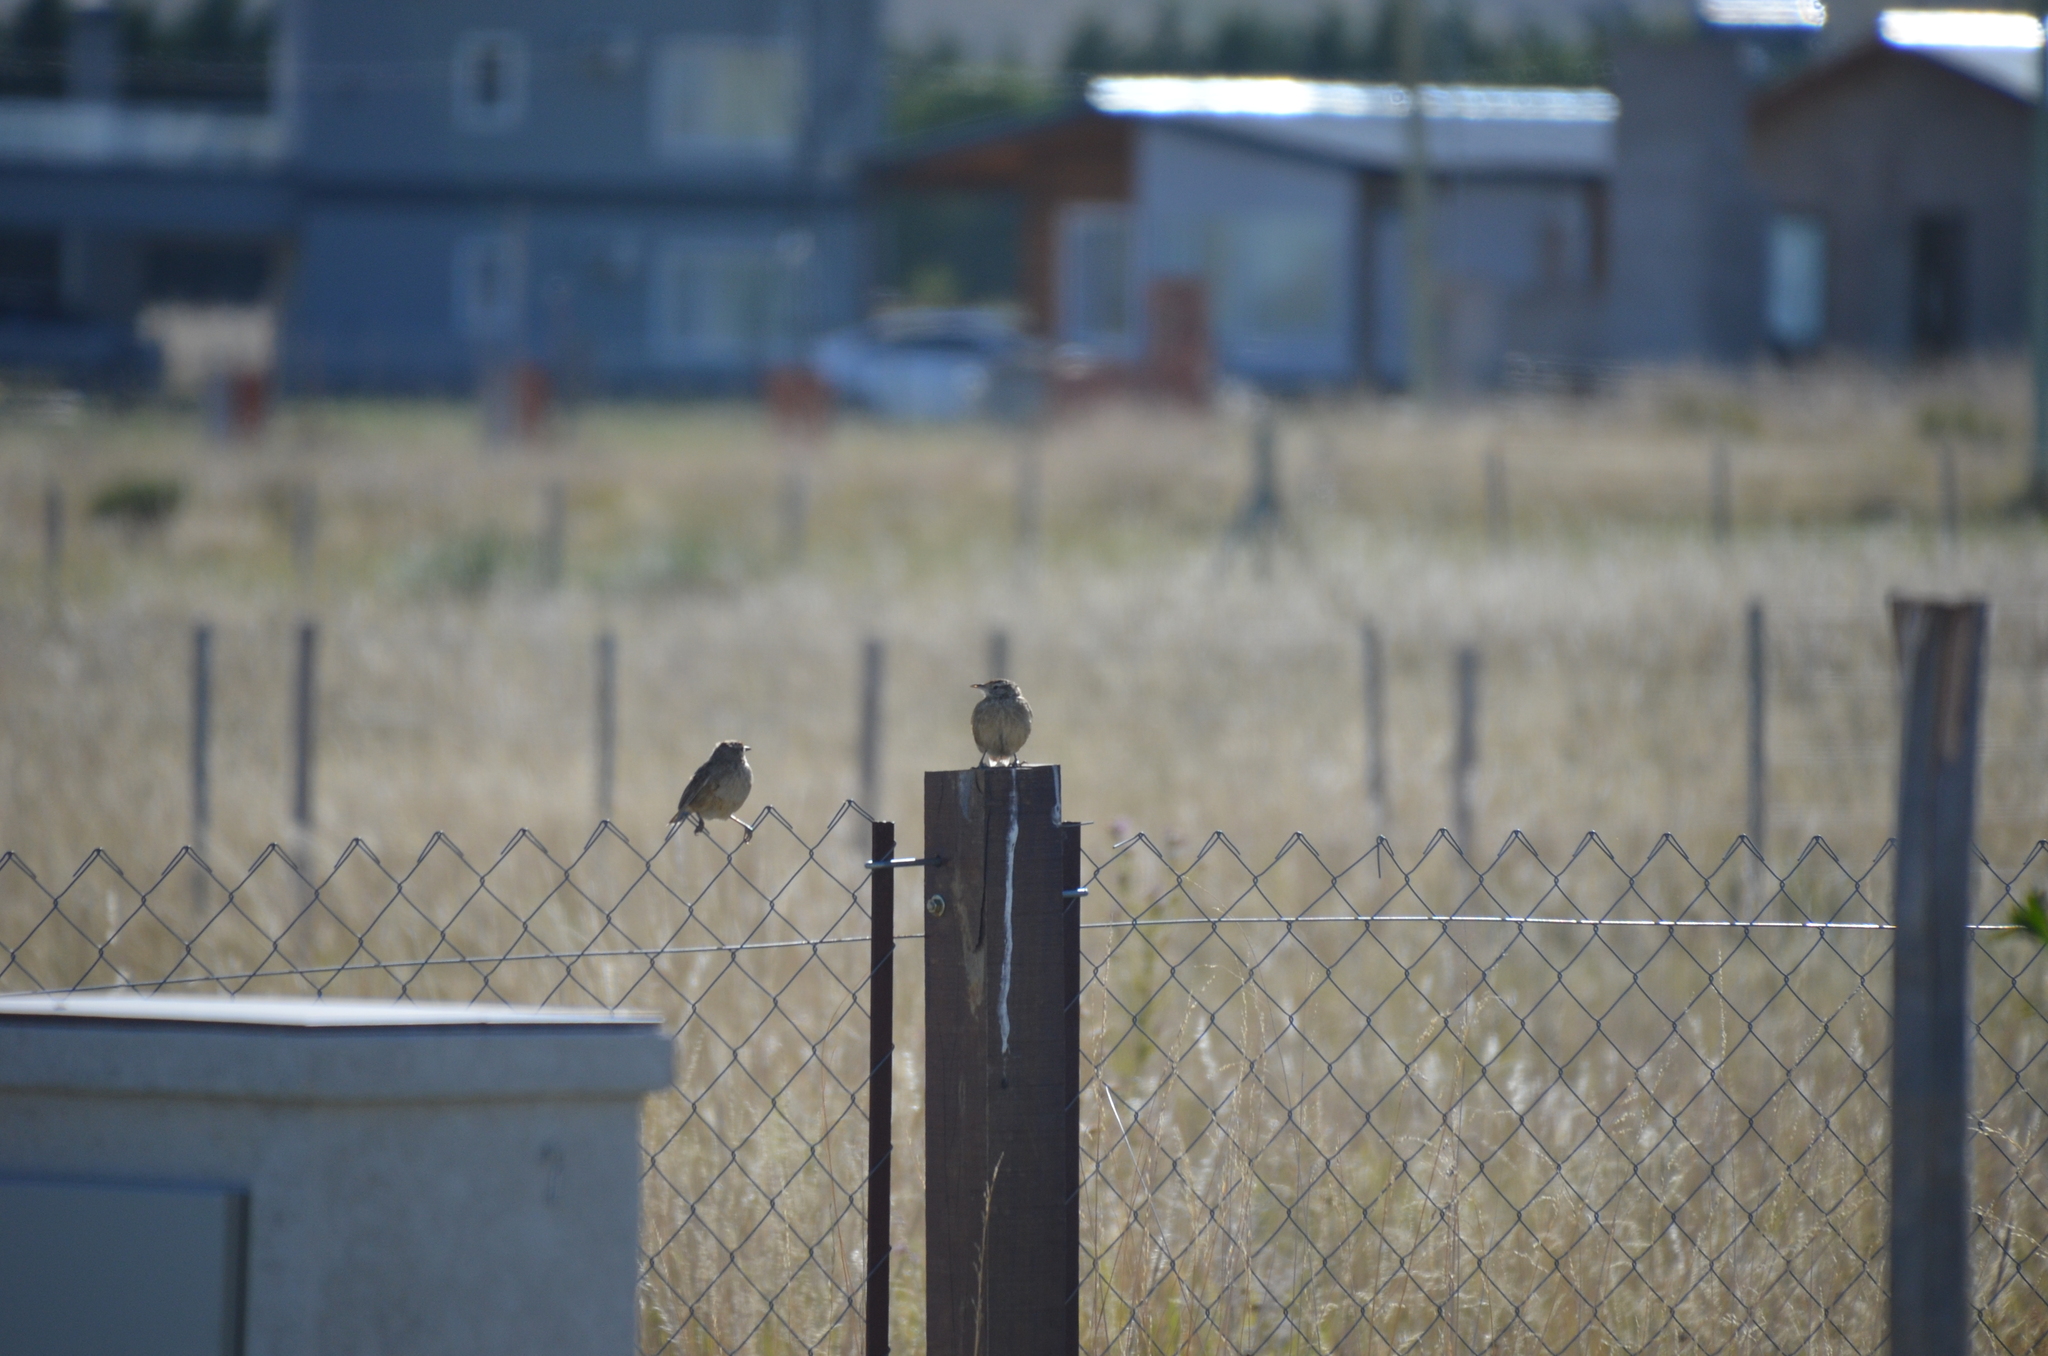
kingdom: Animalia
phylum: Chordata
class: Aves
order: Passeriformes
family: Furnariidae
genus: Anumbius
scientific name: Anumbius annumbi
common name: Firewood-gatherer
